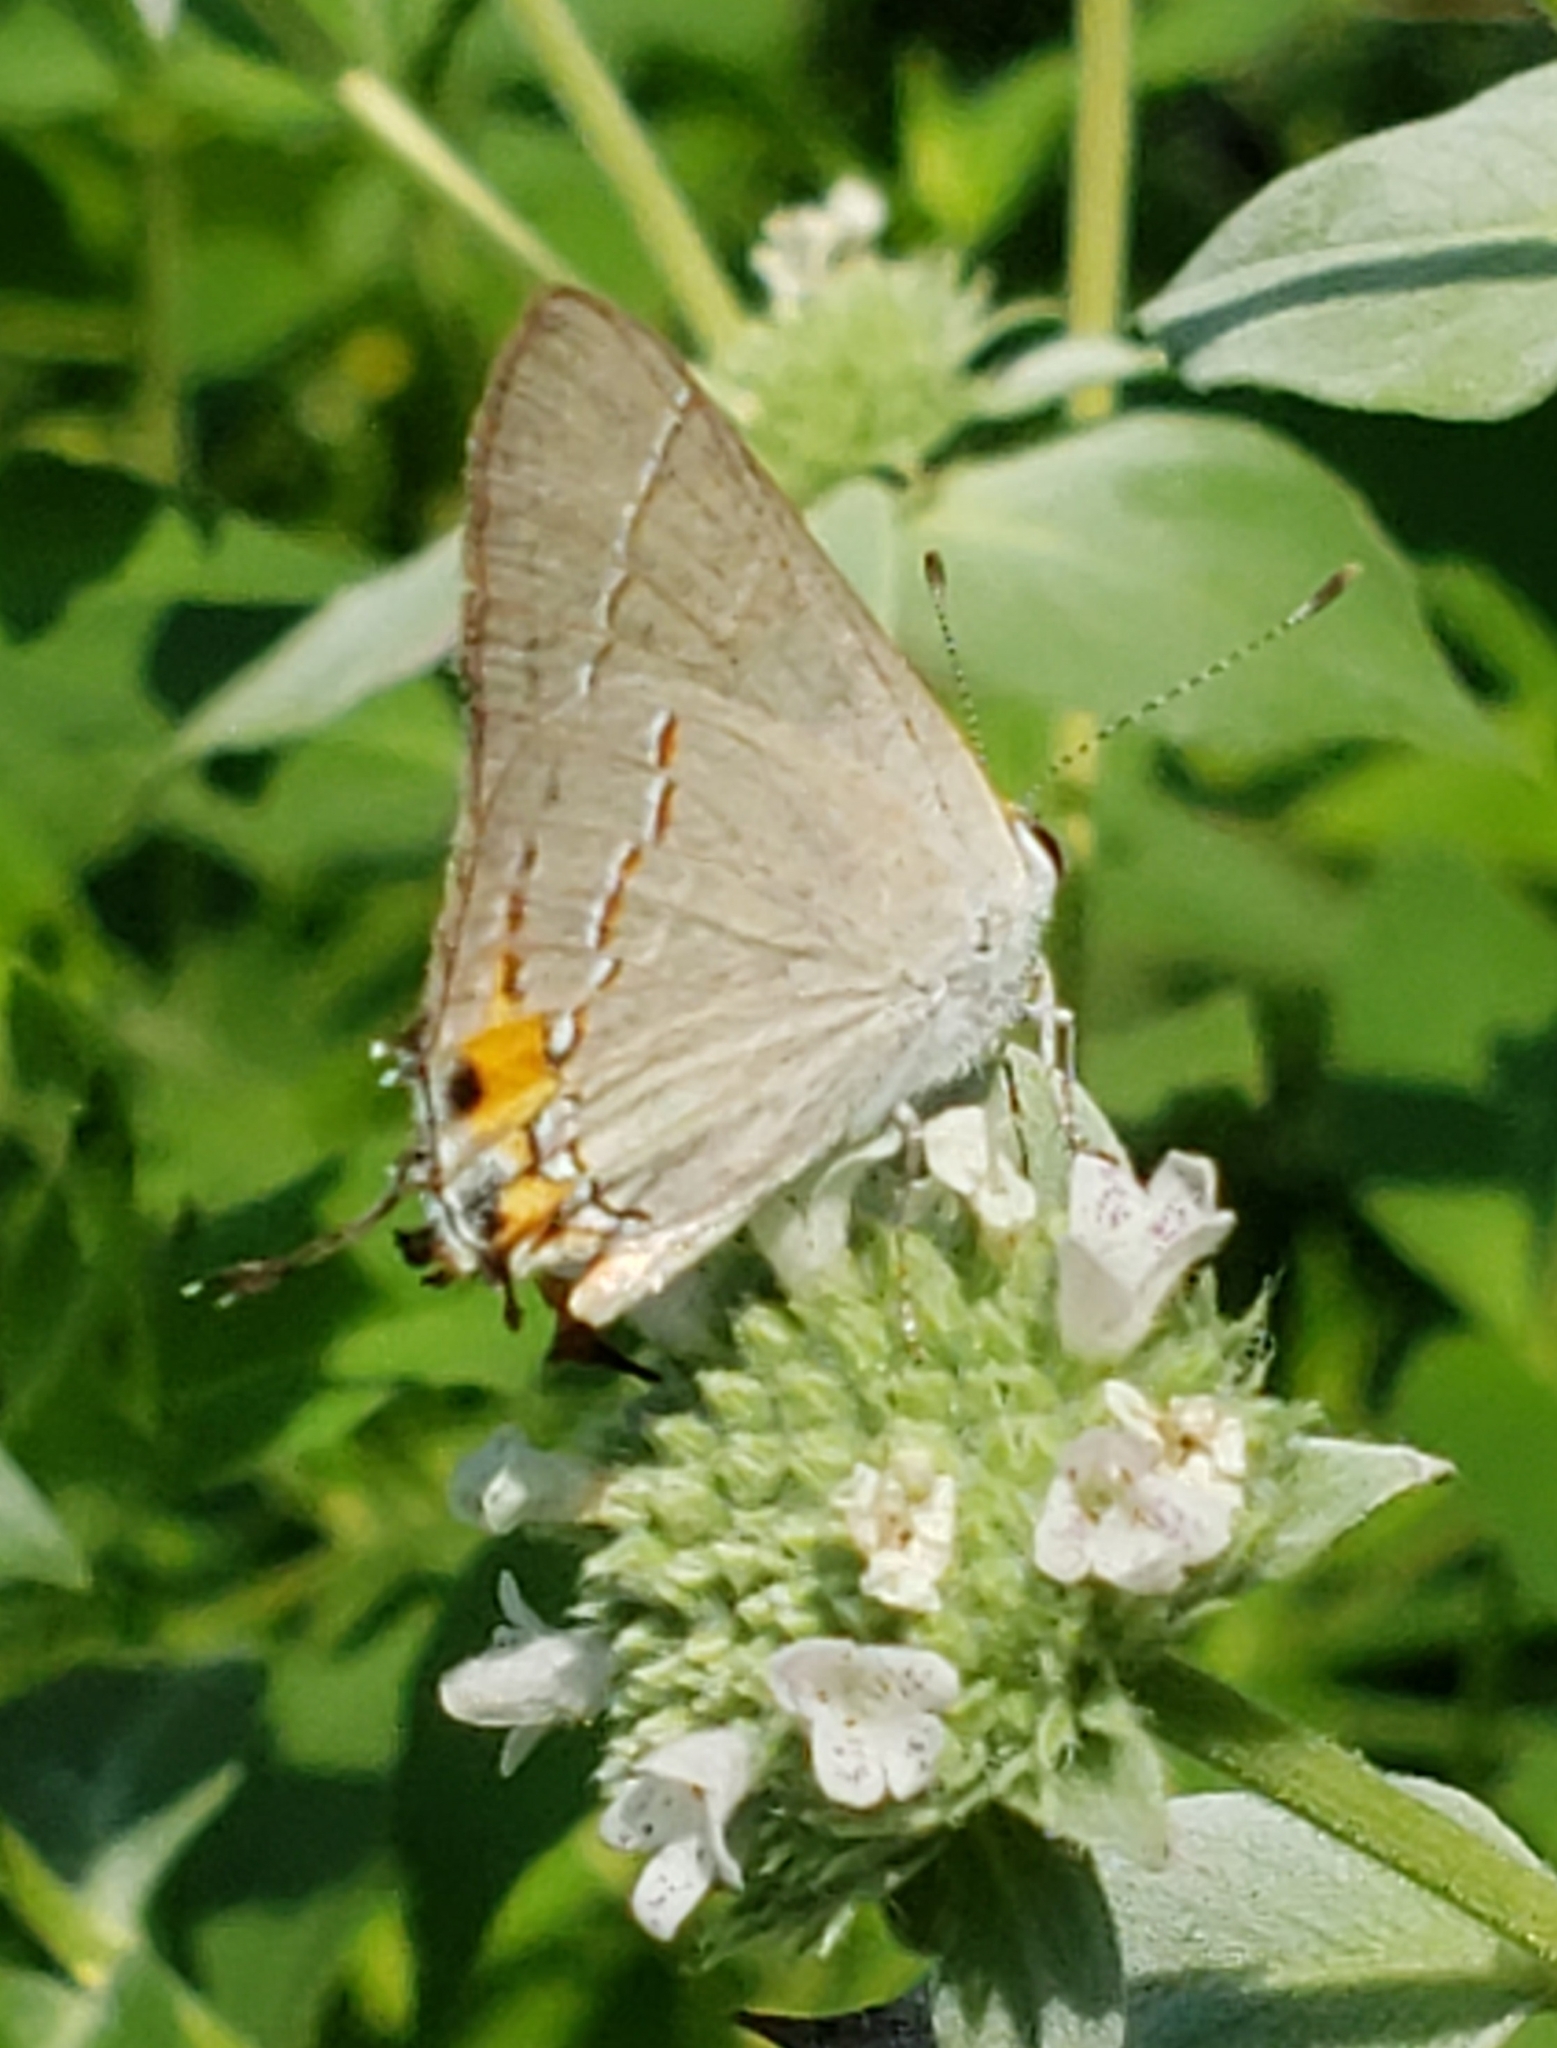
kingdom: Animalia
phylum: Arthropoda
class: Insecta
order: Lepidoptera
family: Lycaenidae
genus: Strymon
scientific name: Strymon melinus
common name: Gray hairstreak
